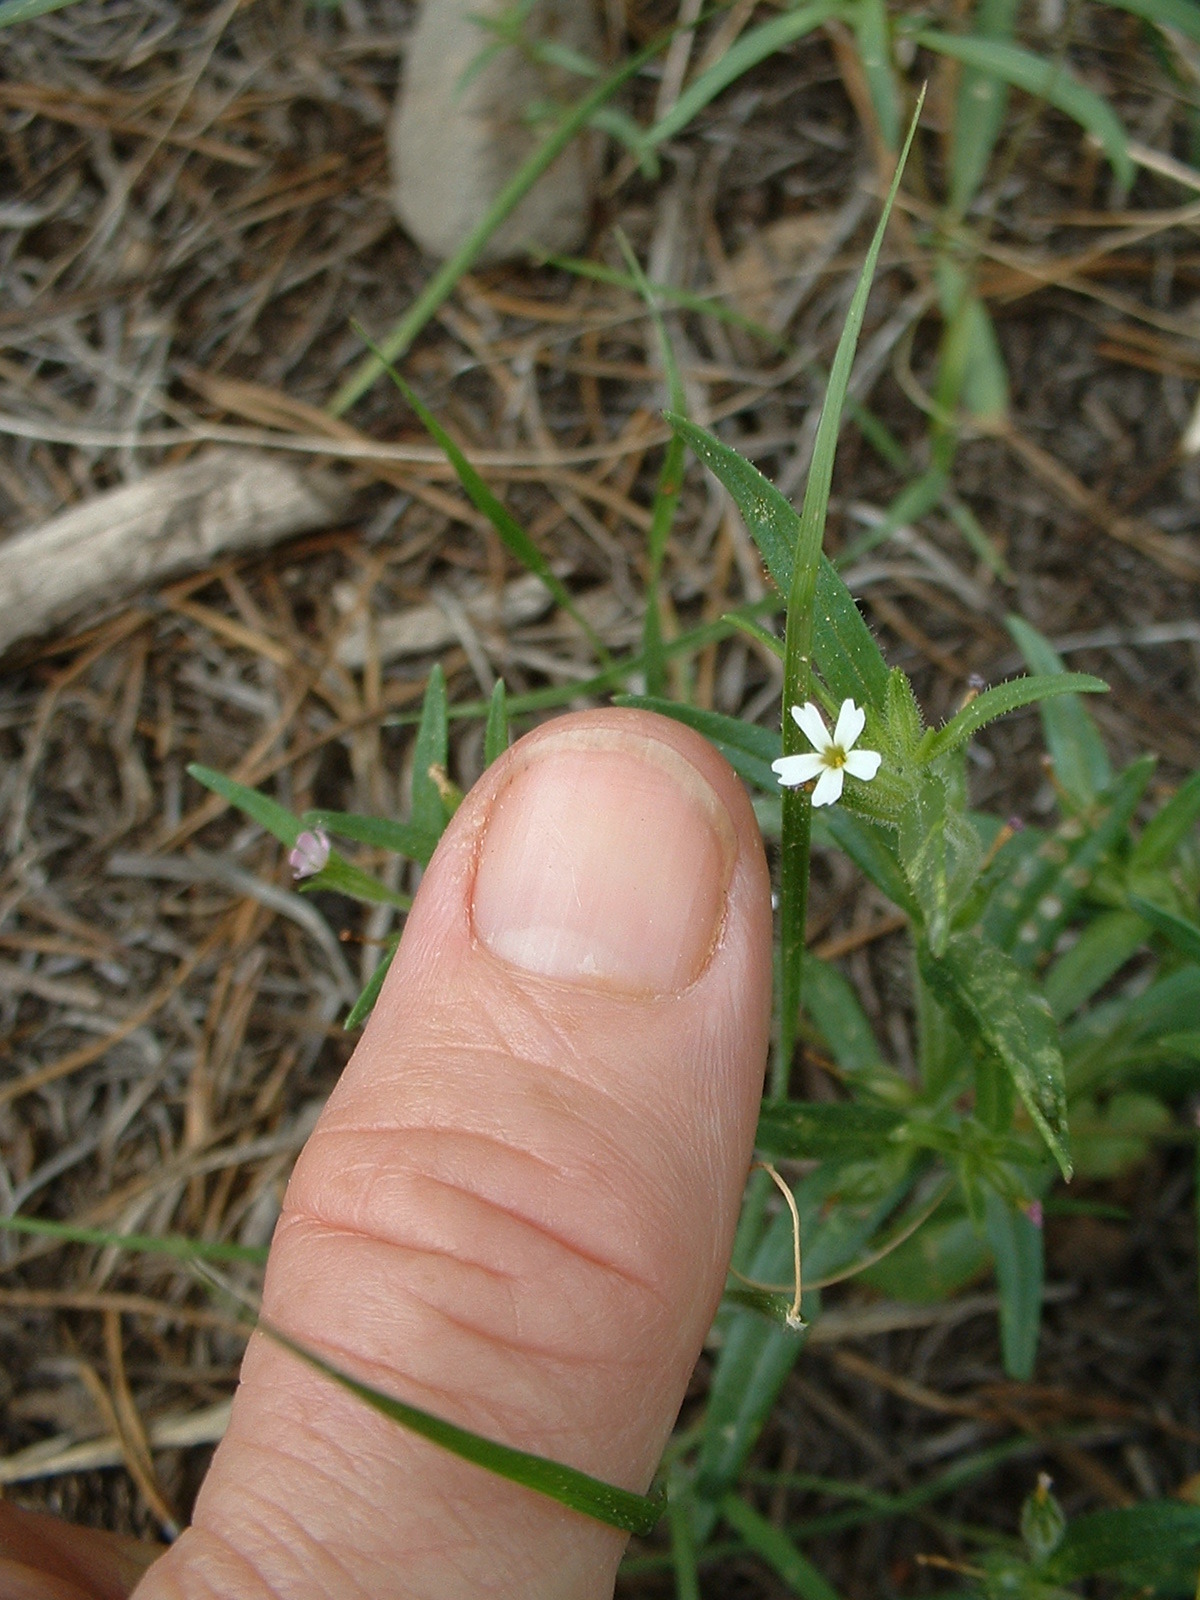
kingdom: Plantae
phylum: Tracheophyta
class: Magnoliopsida
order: Ericales
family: Polemoniaceae
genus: Phlox
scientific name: Phlox gracilis
